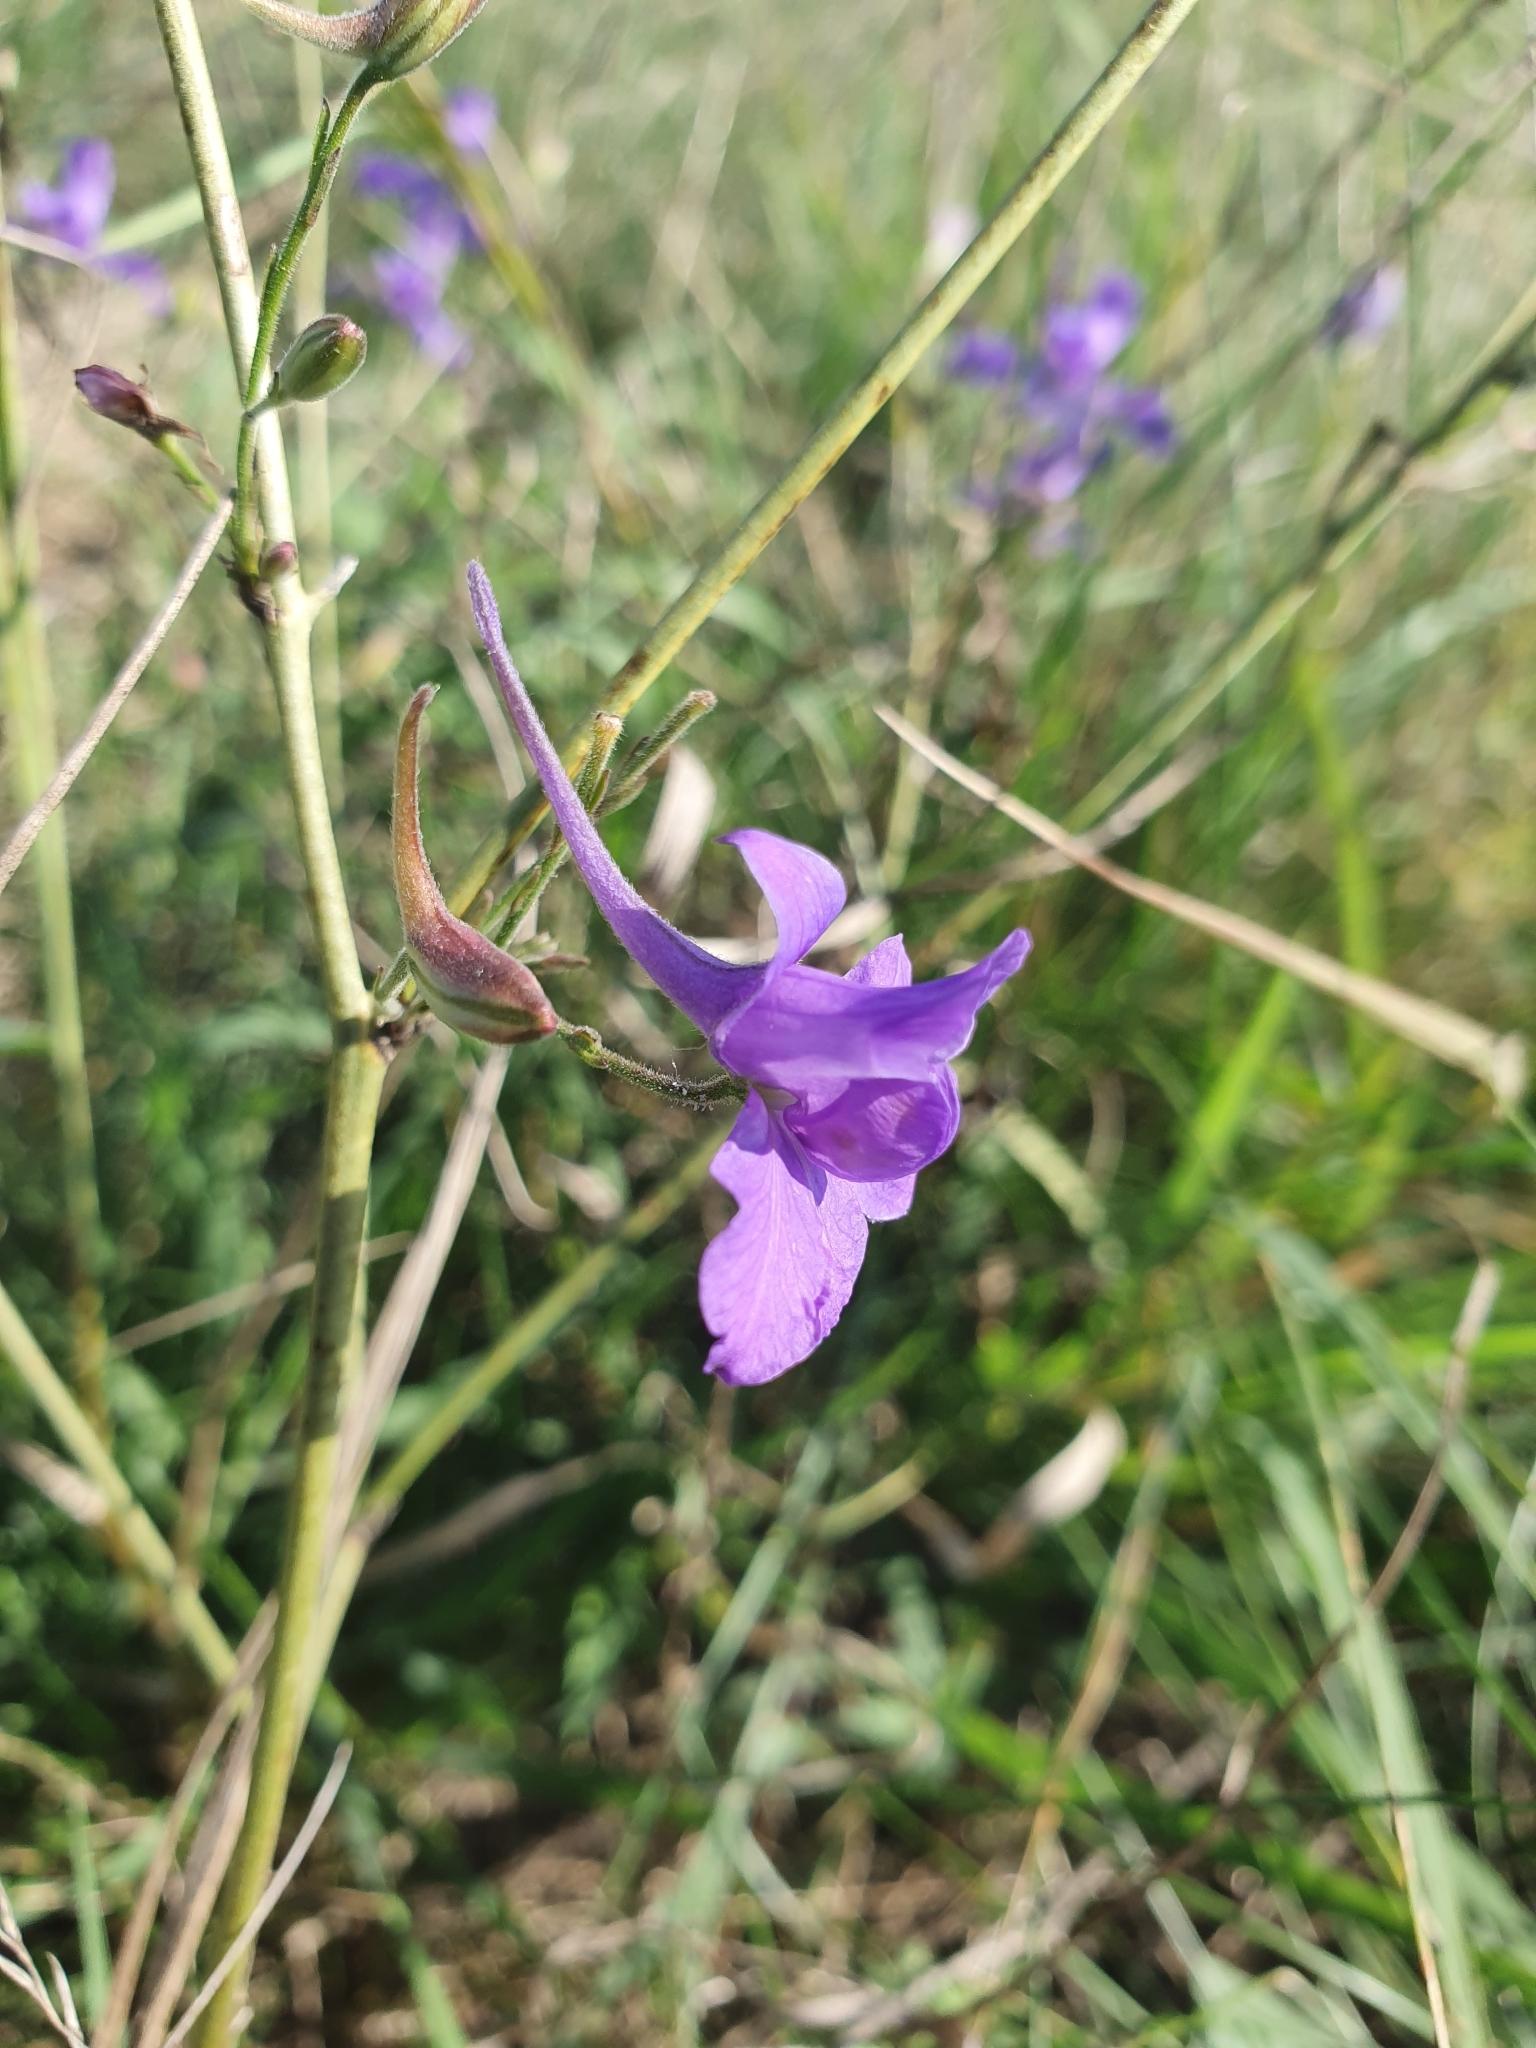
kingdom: Plantae
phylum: Tracheophyta
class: Magnoliopsida
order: Ranunculales
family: Ranunculaceae
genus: Delphinium
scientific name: Delphinium consolida
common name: Branching larkspur
